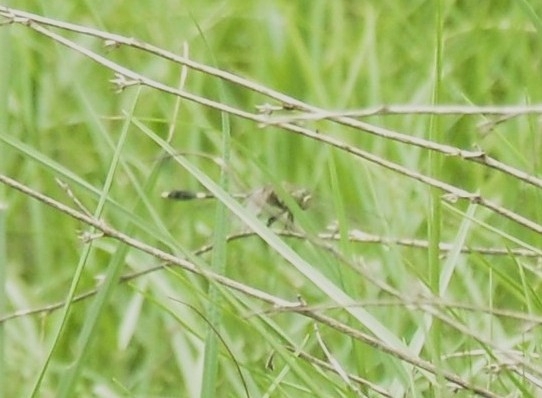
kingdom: Animalia
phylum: Arthropoda
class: Insecta
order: Odonata
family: Libellulidae
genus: Orthetrum
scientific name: Orthetrum sabina
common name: Slender skimmer
